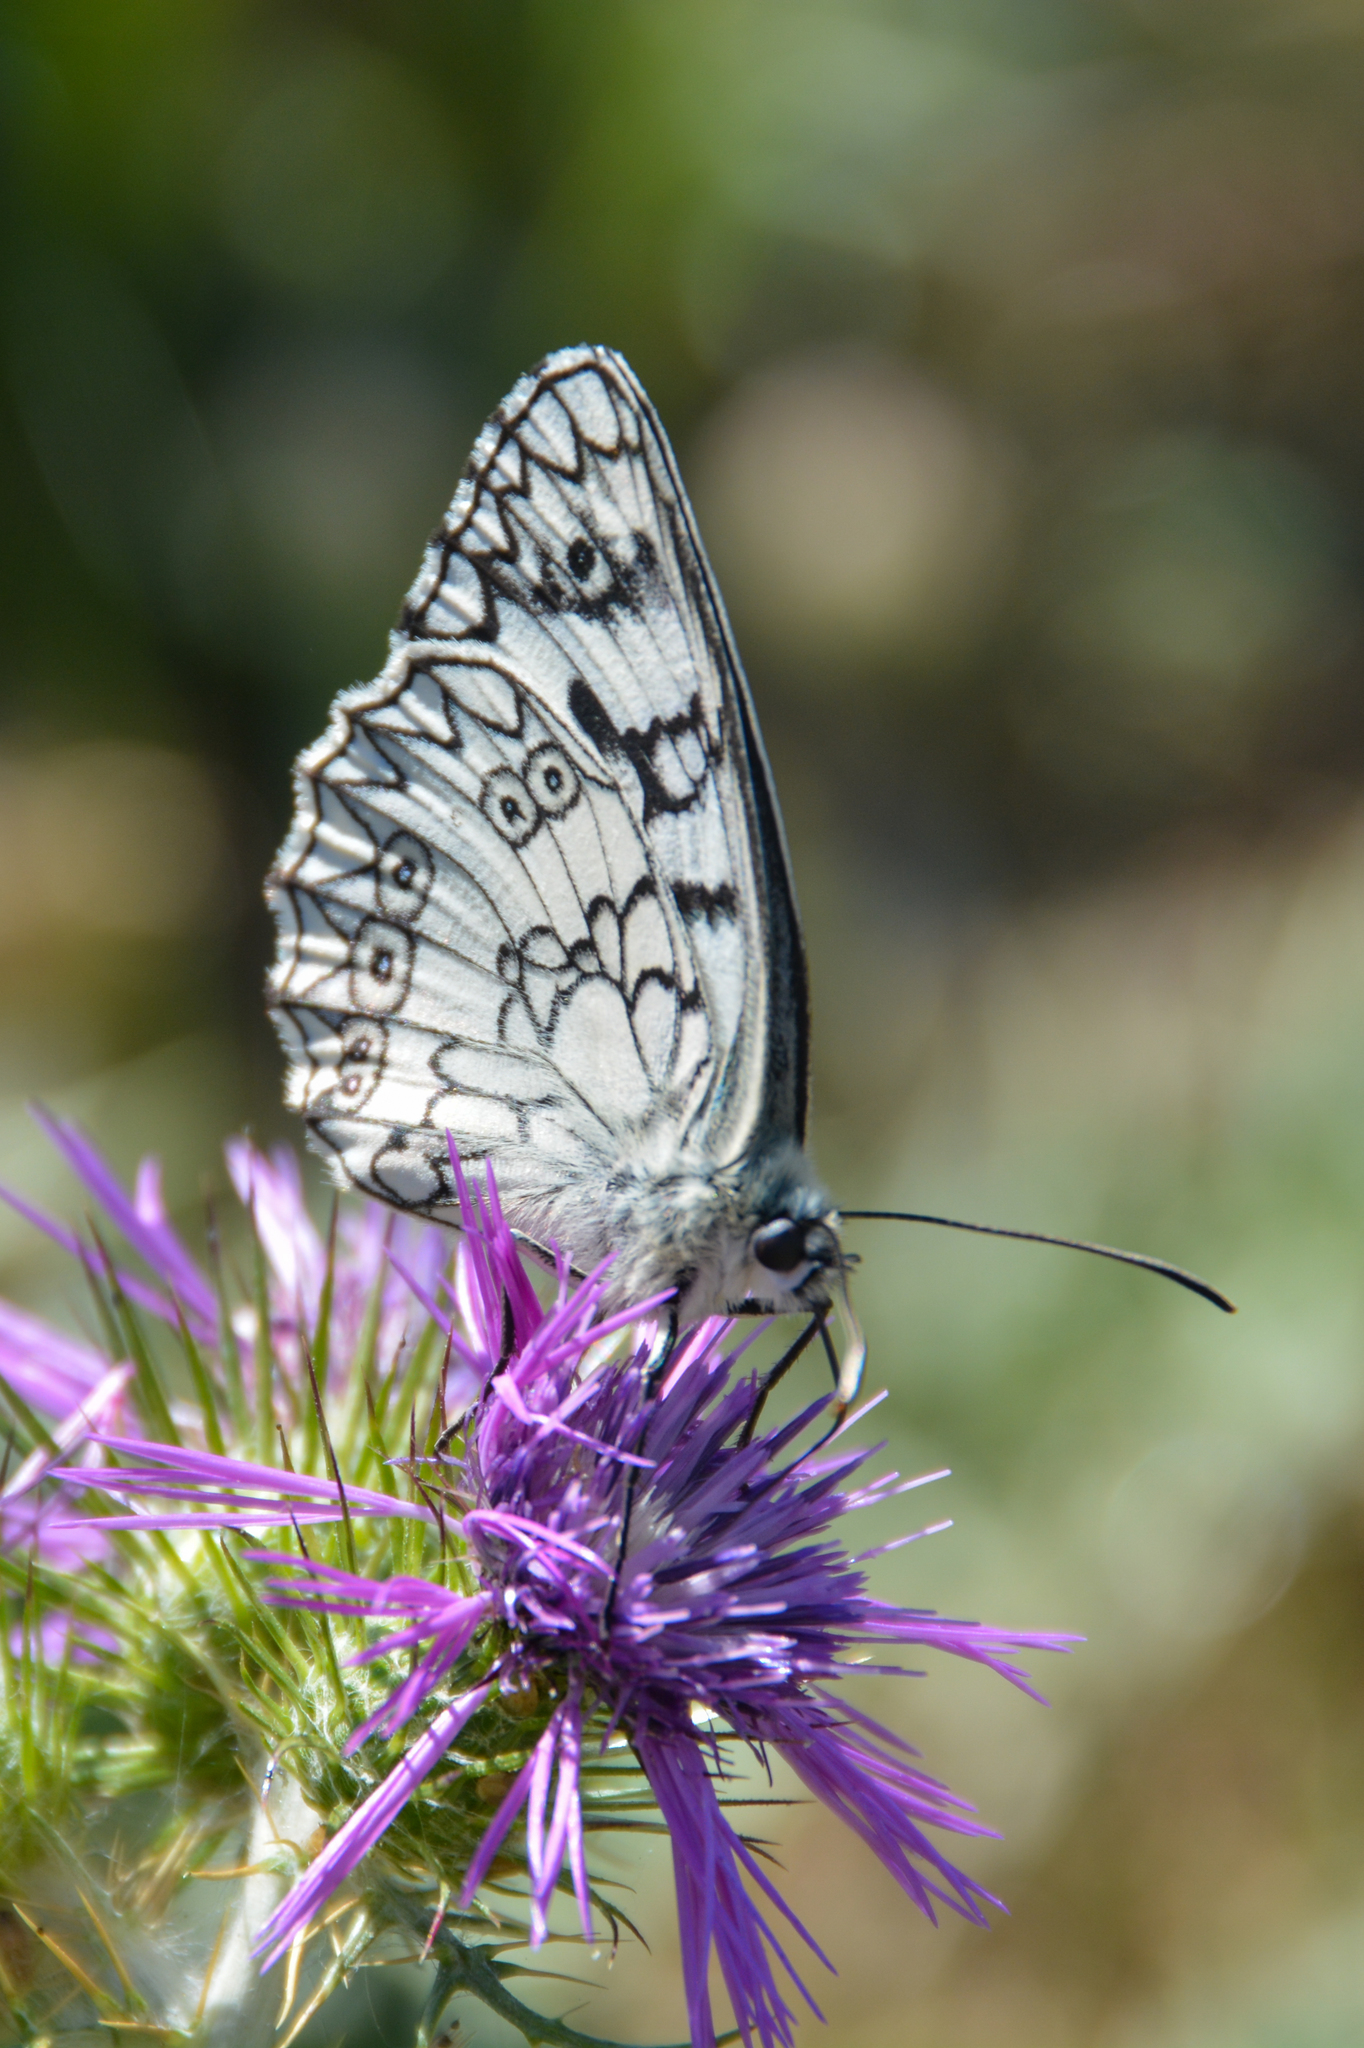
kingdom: Animalia
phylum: Arthropoda
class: Insecta
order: Lepidoptera
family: Nymphalidae
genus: Melanargia
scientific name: Melanargia japygia
